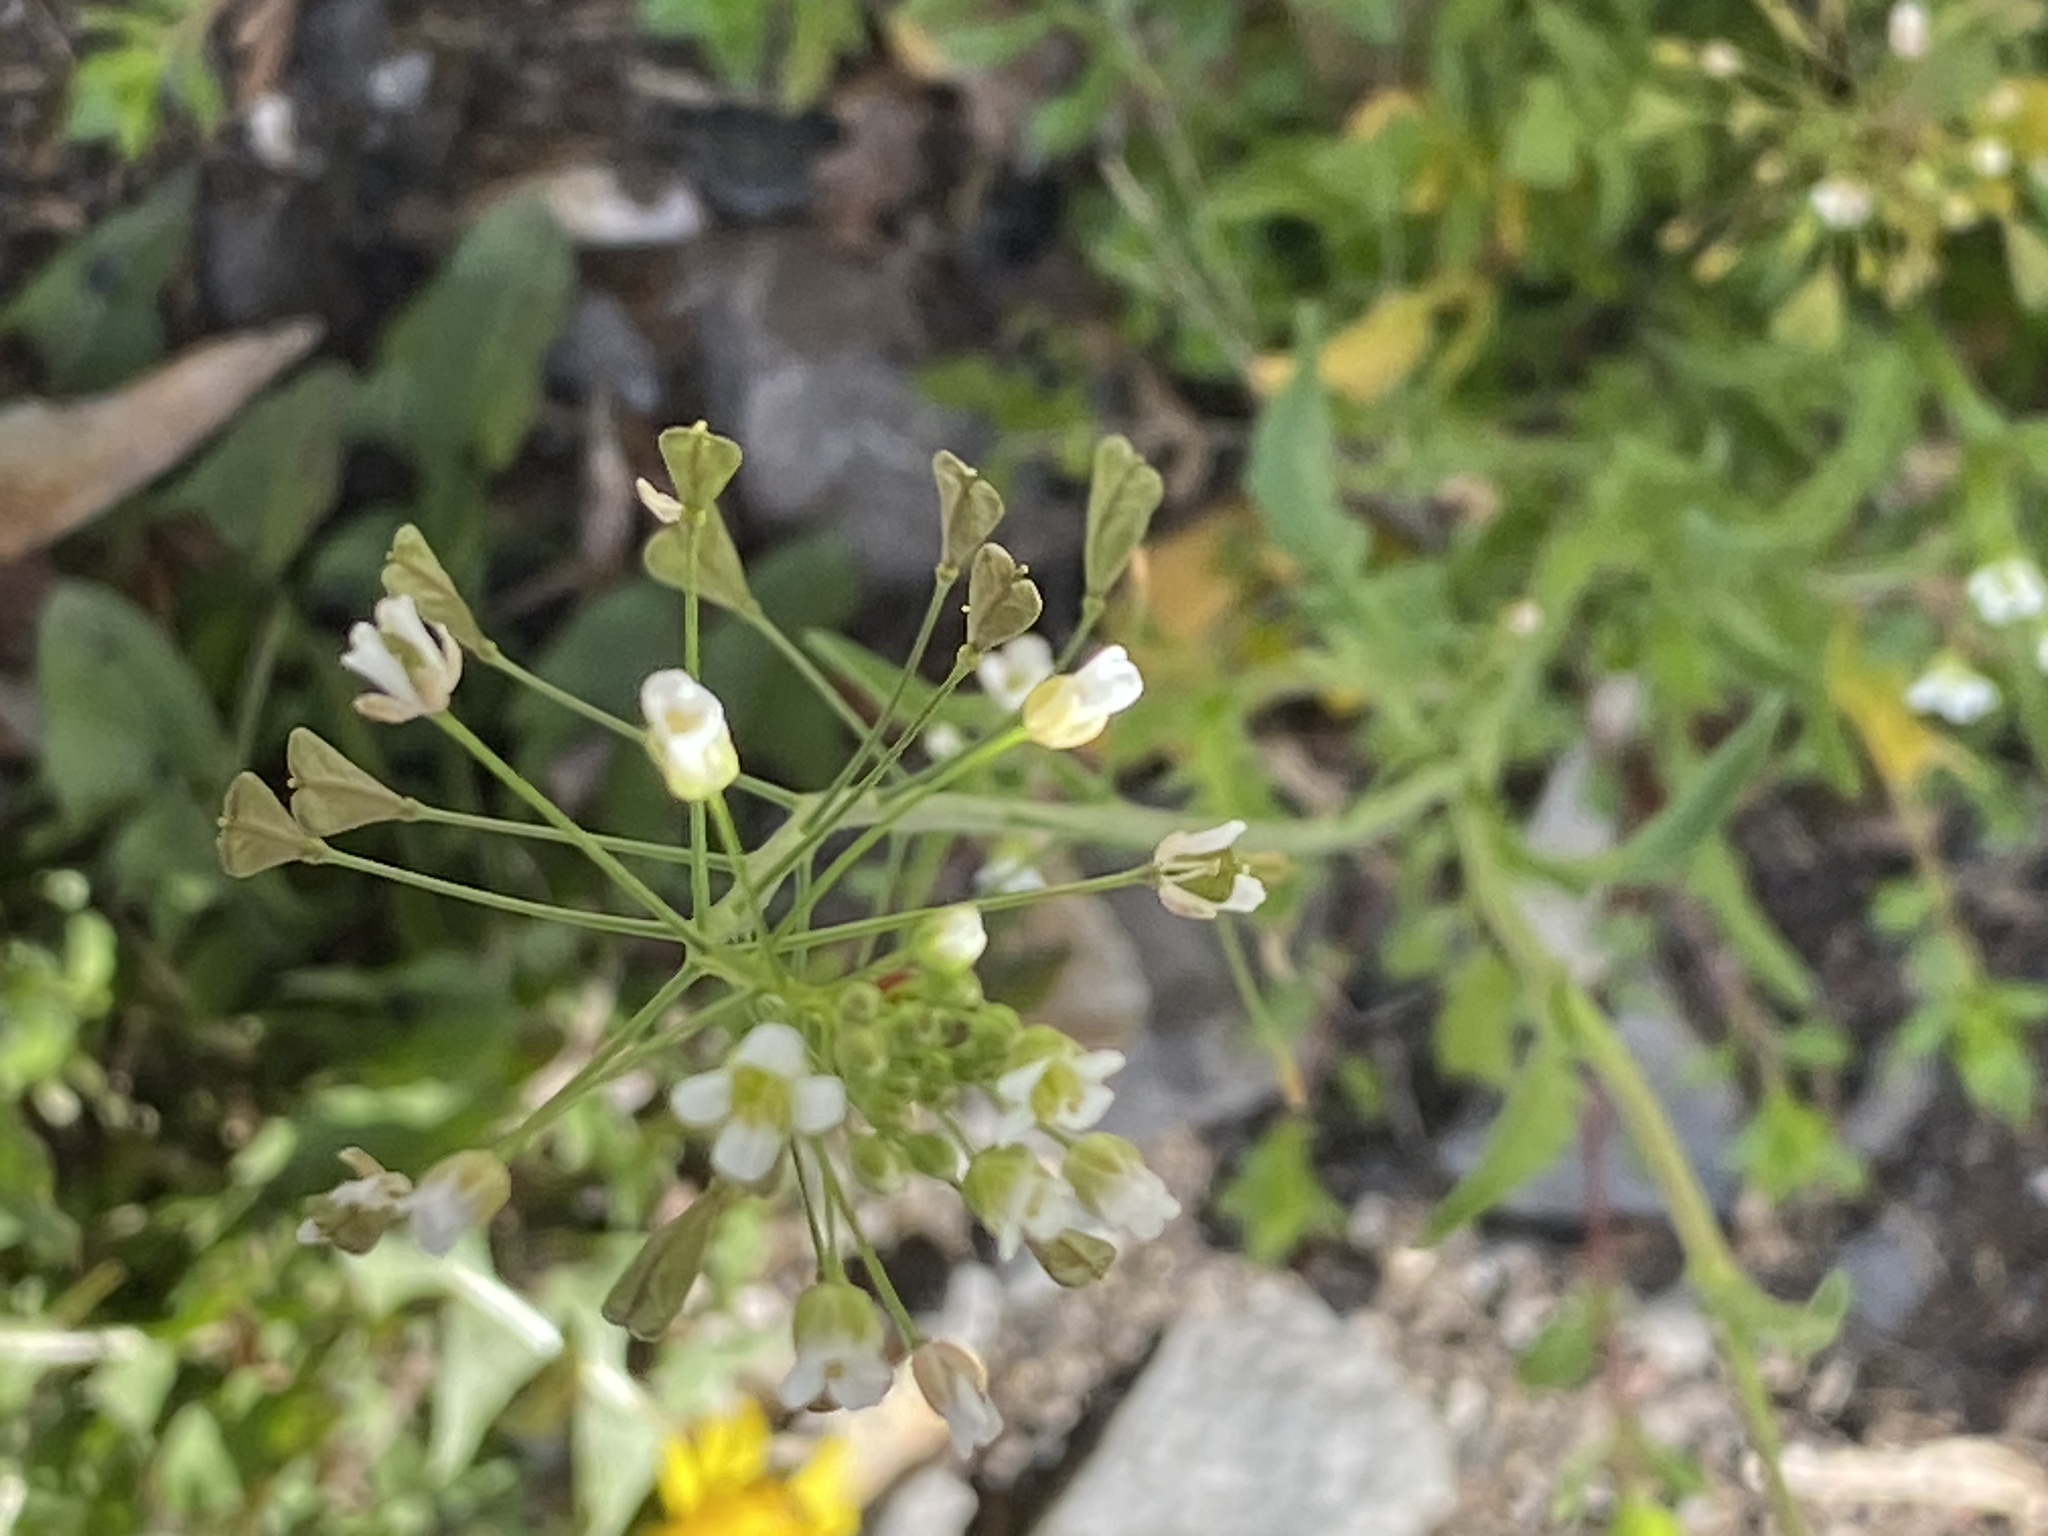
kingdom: Plantae
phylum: Tracheophyta
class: Magnoliopsida
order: Brassicales
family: Brassicaceae
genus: Capsella
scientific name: Capsella bursa-pastoris
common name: Shepherd's purse
